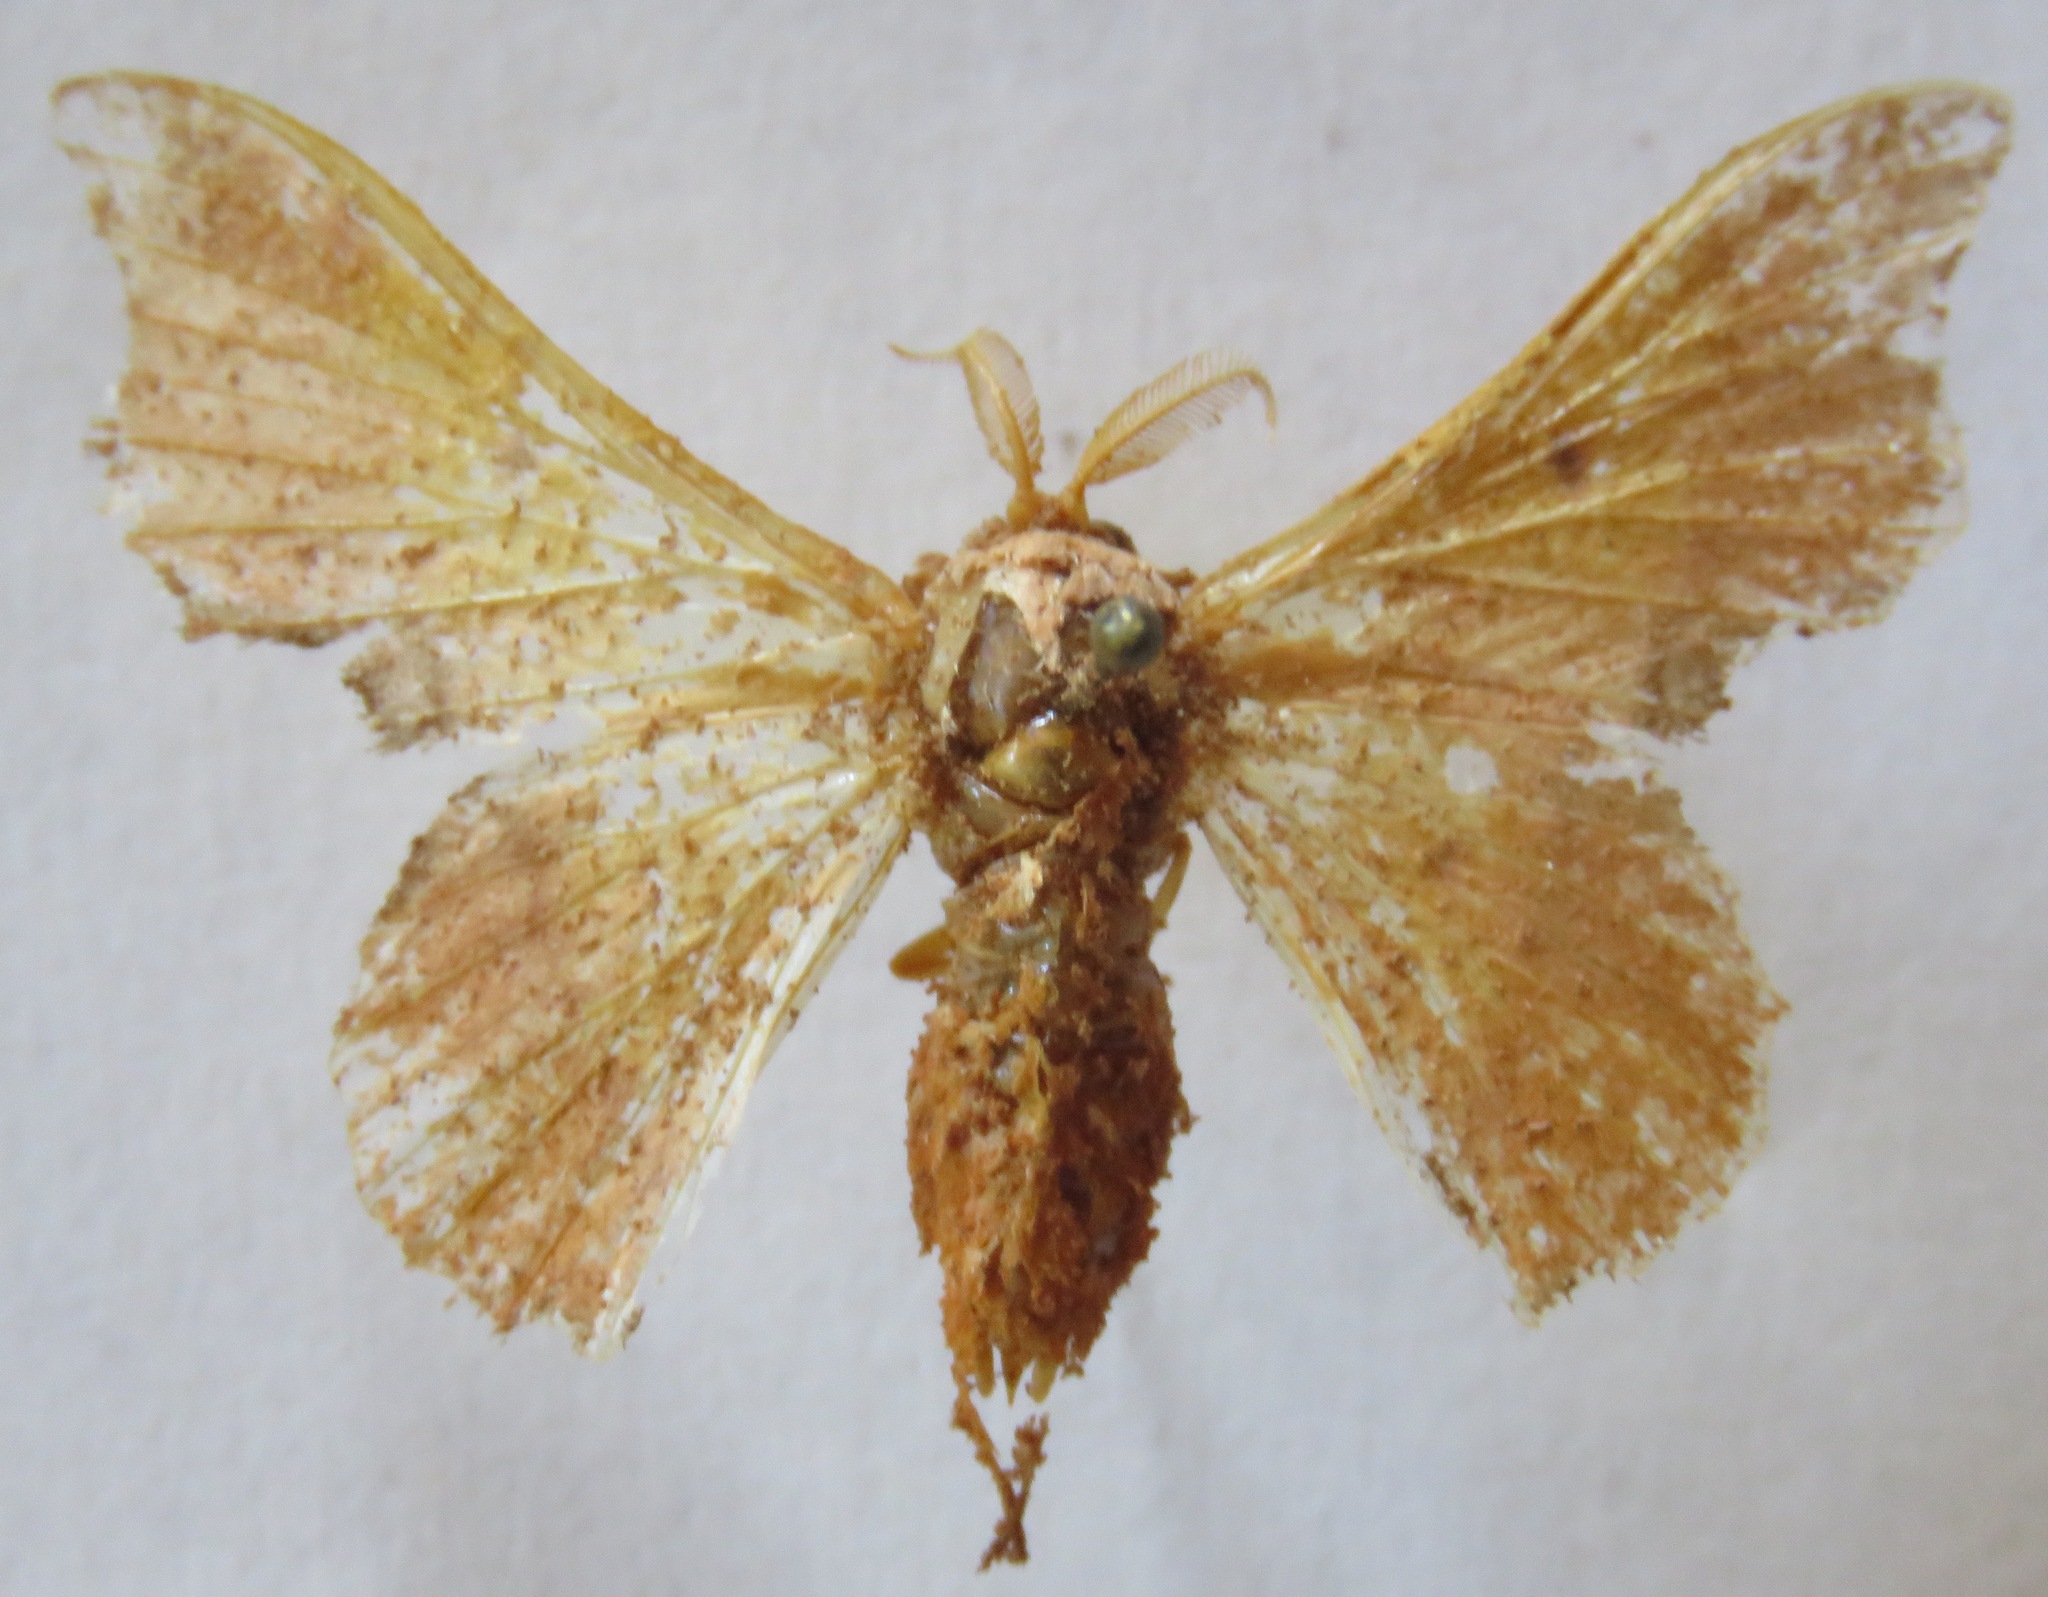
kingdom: Animalia
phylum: Arthropoda
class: Insecta
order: Lepidoptera
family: Mimallonidae
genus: Lacosoma
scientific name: Lacosoma valera
